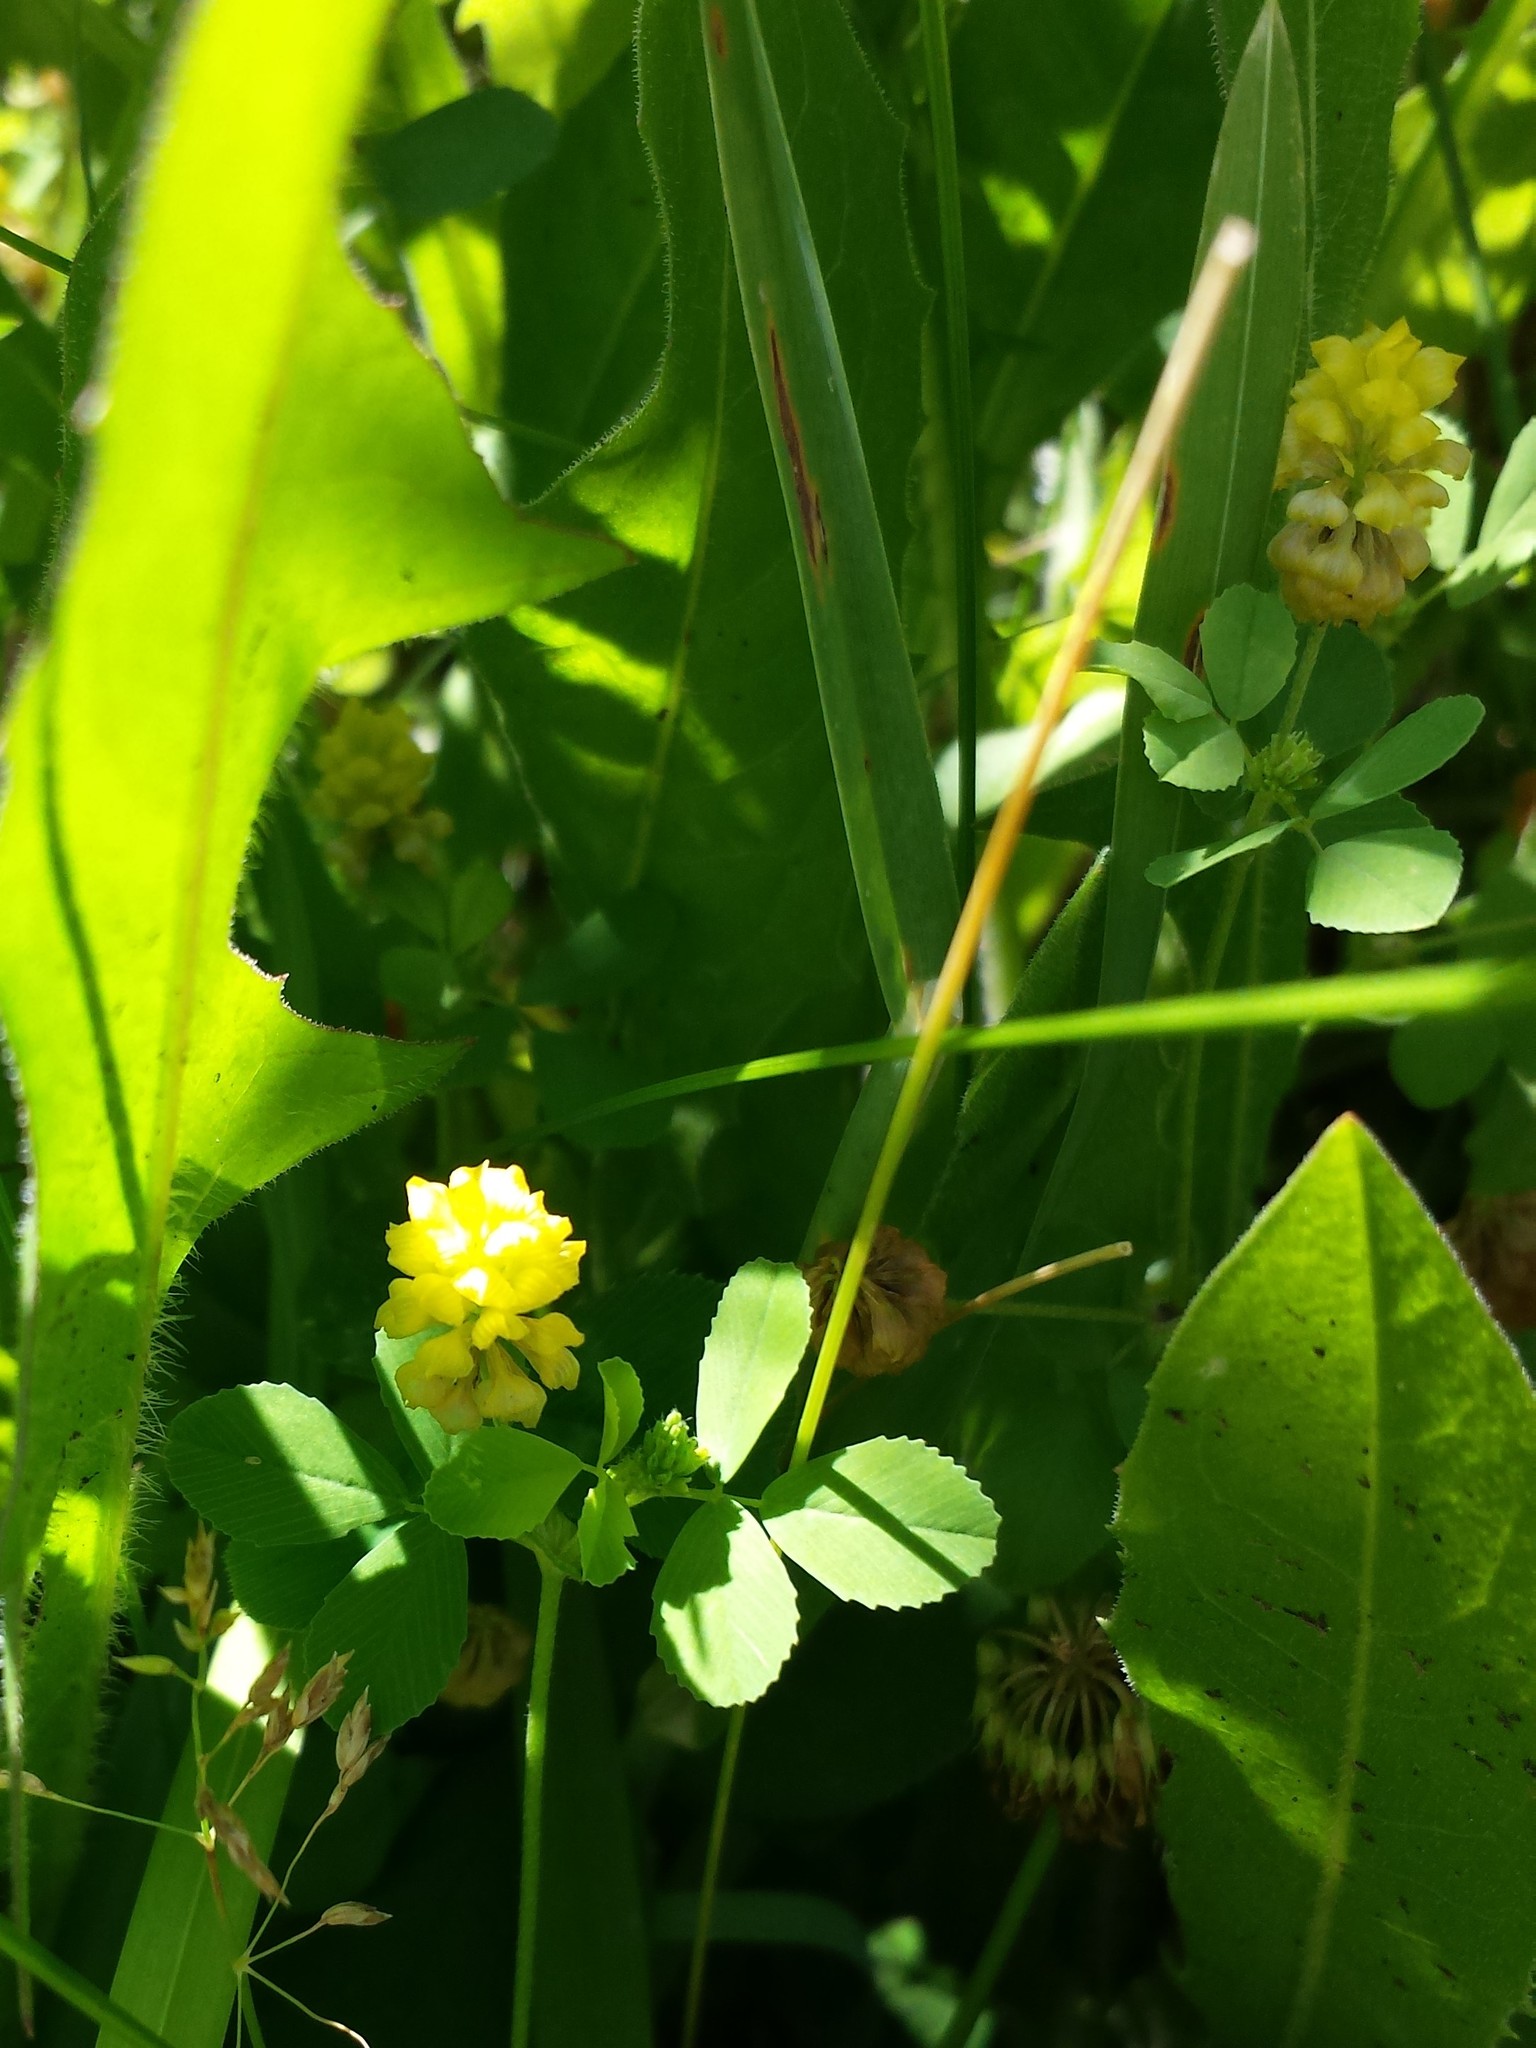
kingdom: Plantae
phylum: Tracheophyta
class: Magnoliopsida
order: Fabales
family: Fabaceae
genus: Trifolium
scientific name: Trifolium campestre
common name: Field clover
